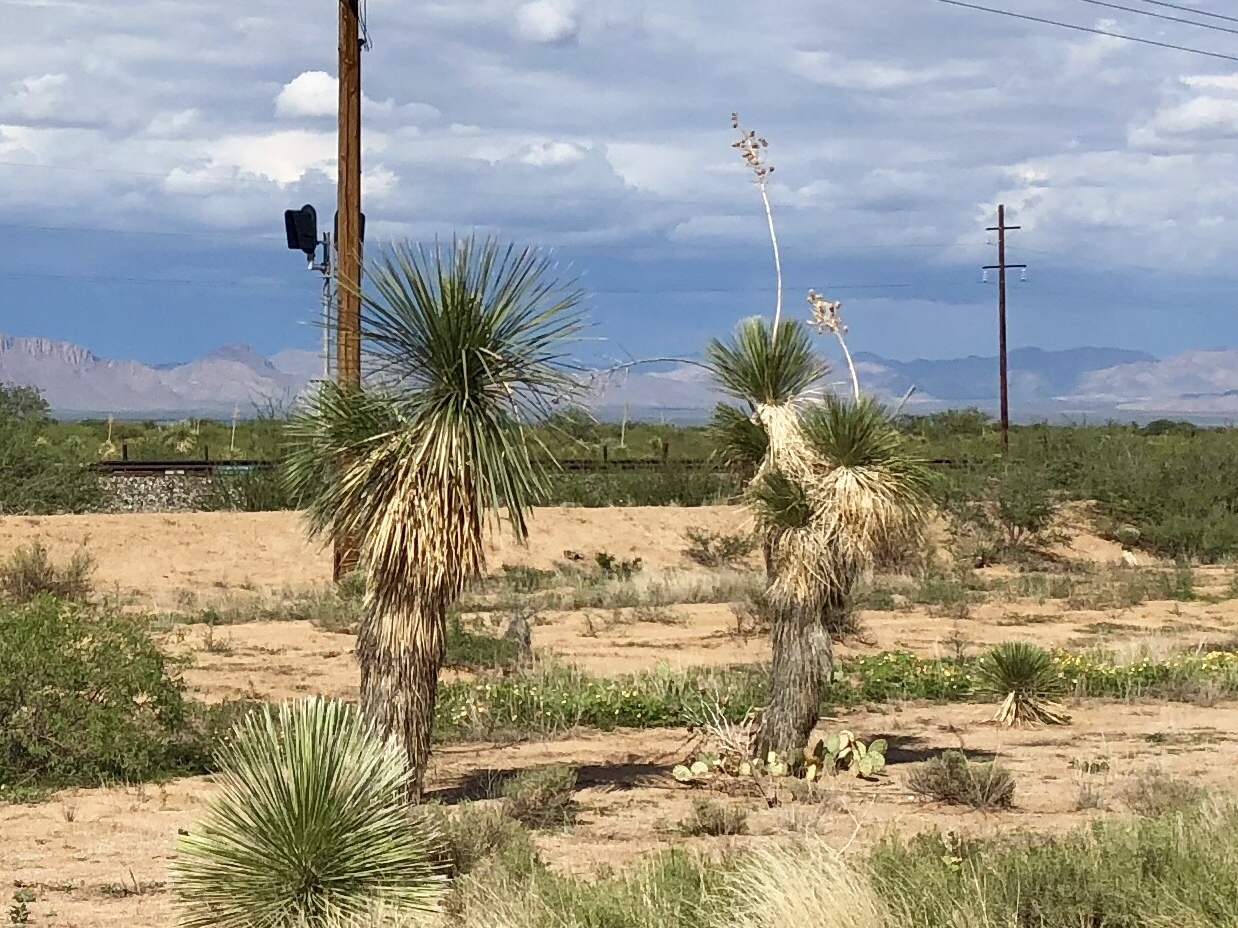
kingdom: Plantae
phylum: Tracheophyta
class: Liliopsida
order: Asparagales
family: Asparagaceae
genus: Yucca
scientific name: Yucca elata
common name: Palmella
